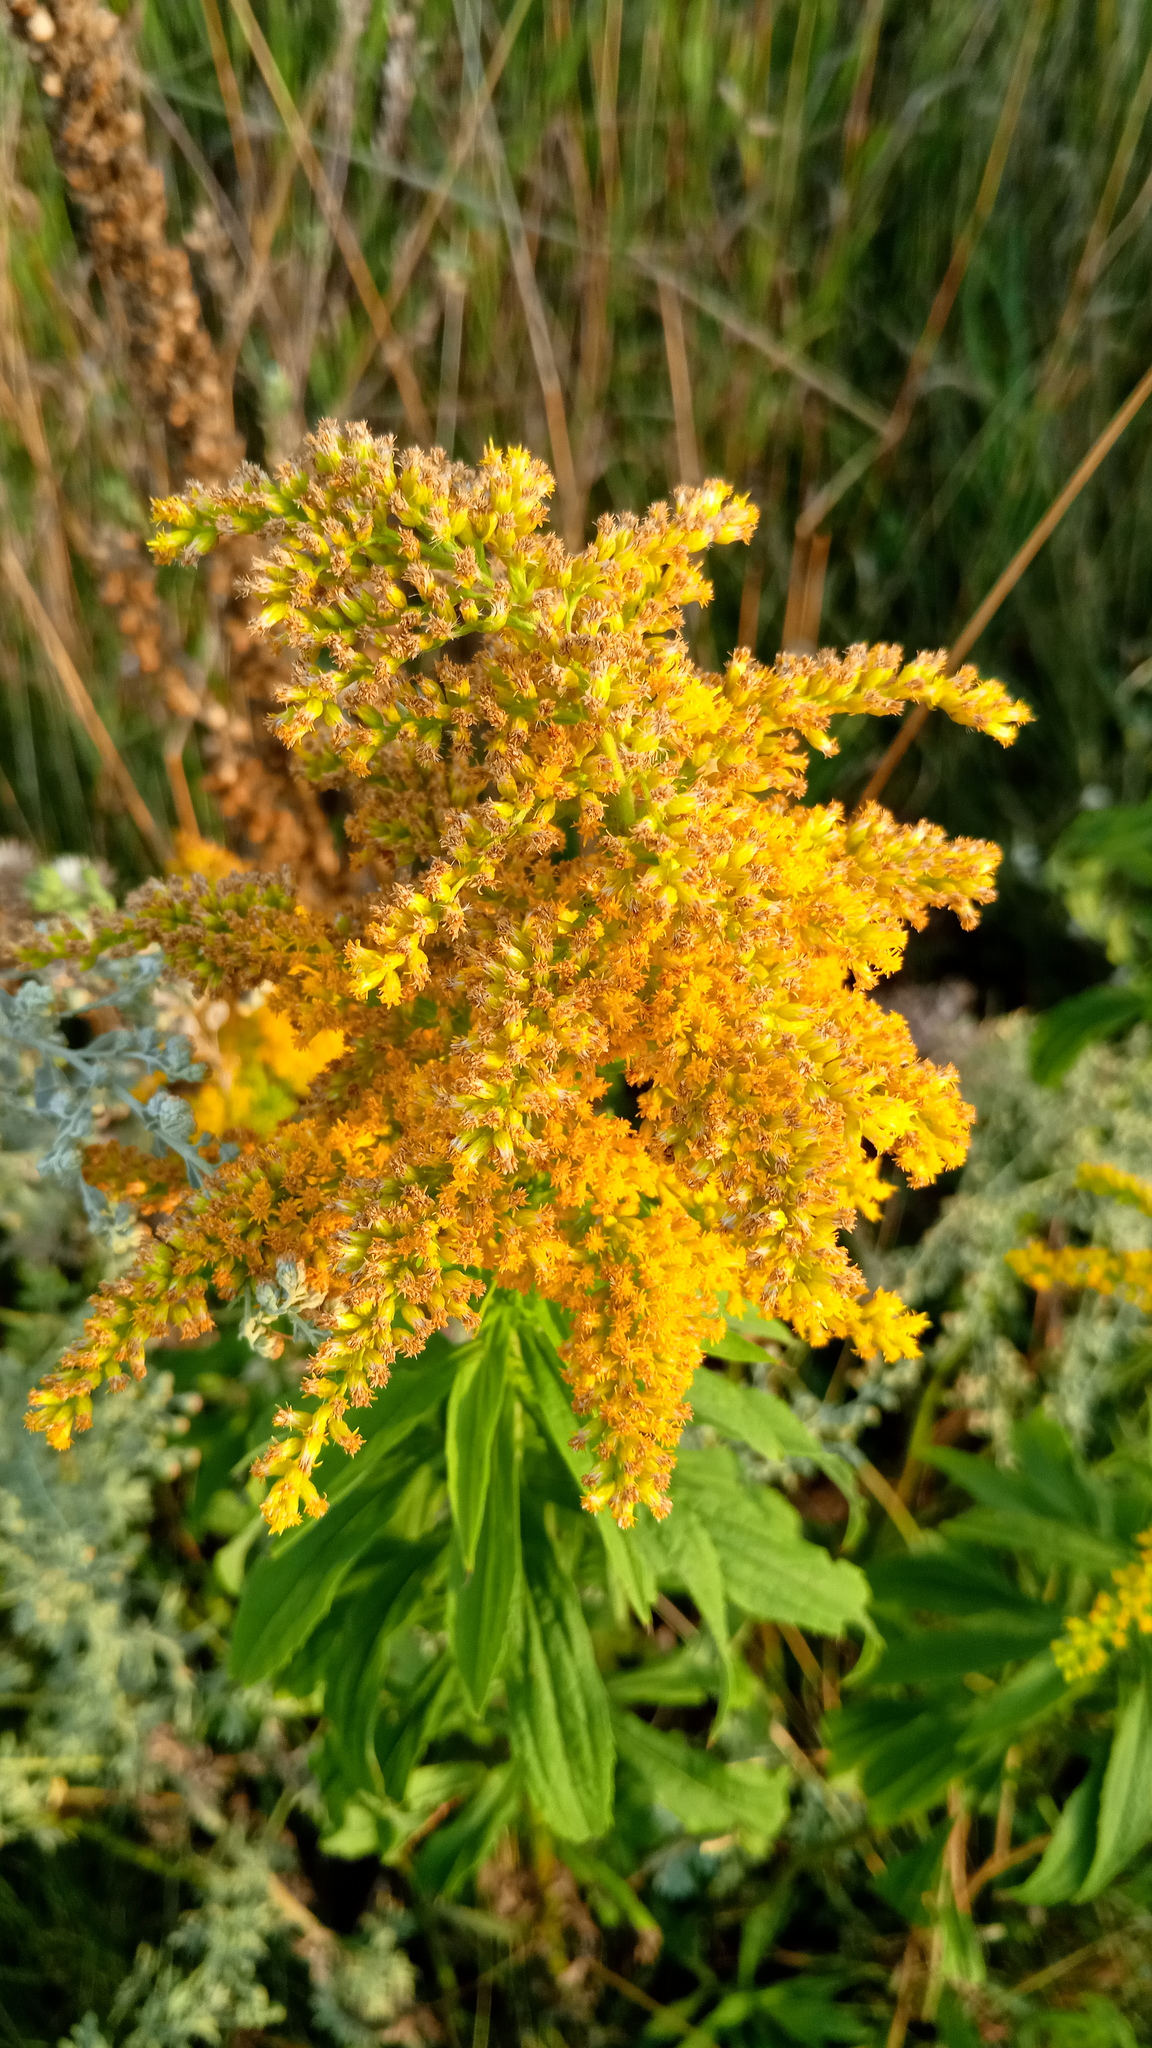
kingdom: Plantae
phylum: Tracheophyta
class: Magnoliopsida
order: Asterales
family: Asteraceae
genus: Solidago
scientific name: Solidago canadensis
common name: Canada goldenrod
